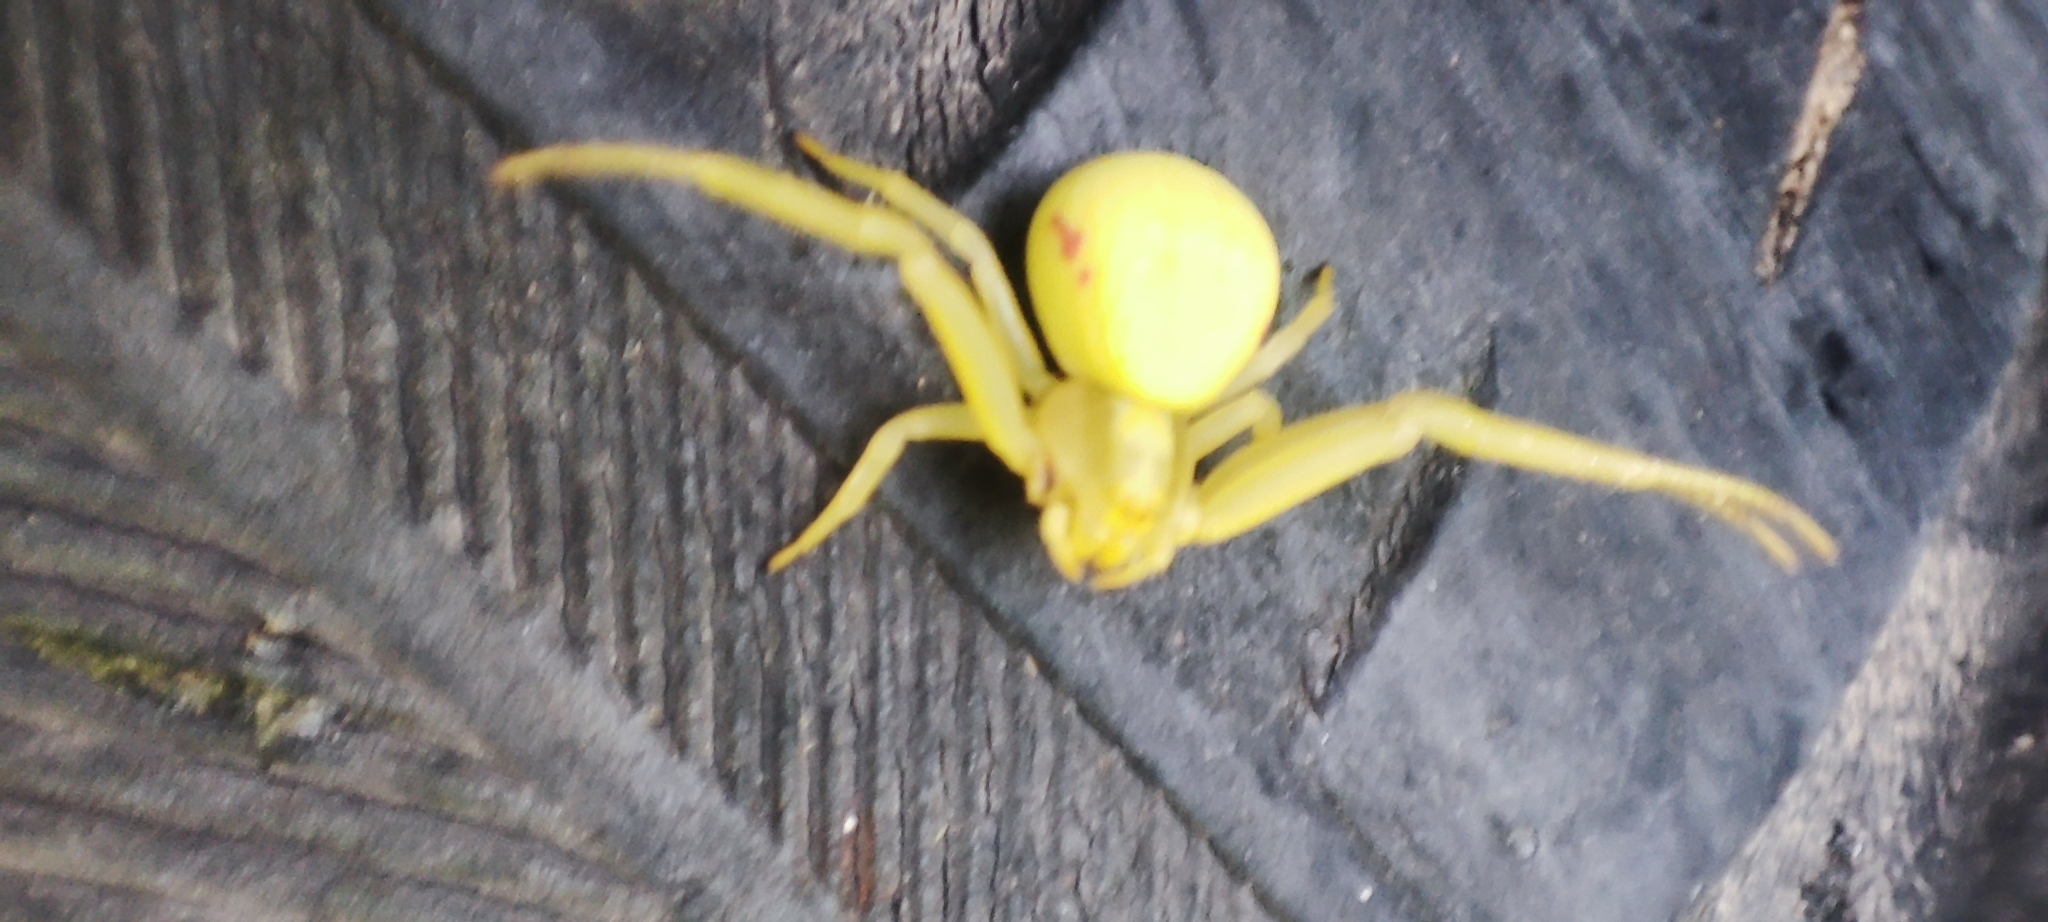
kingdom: Animalia
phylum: Arthropoda
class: Arachnida
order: Araneae
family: Thomisidae
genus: Misumena
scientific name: Misumena vatia
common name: Goldenrod crab spider
